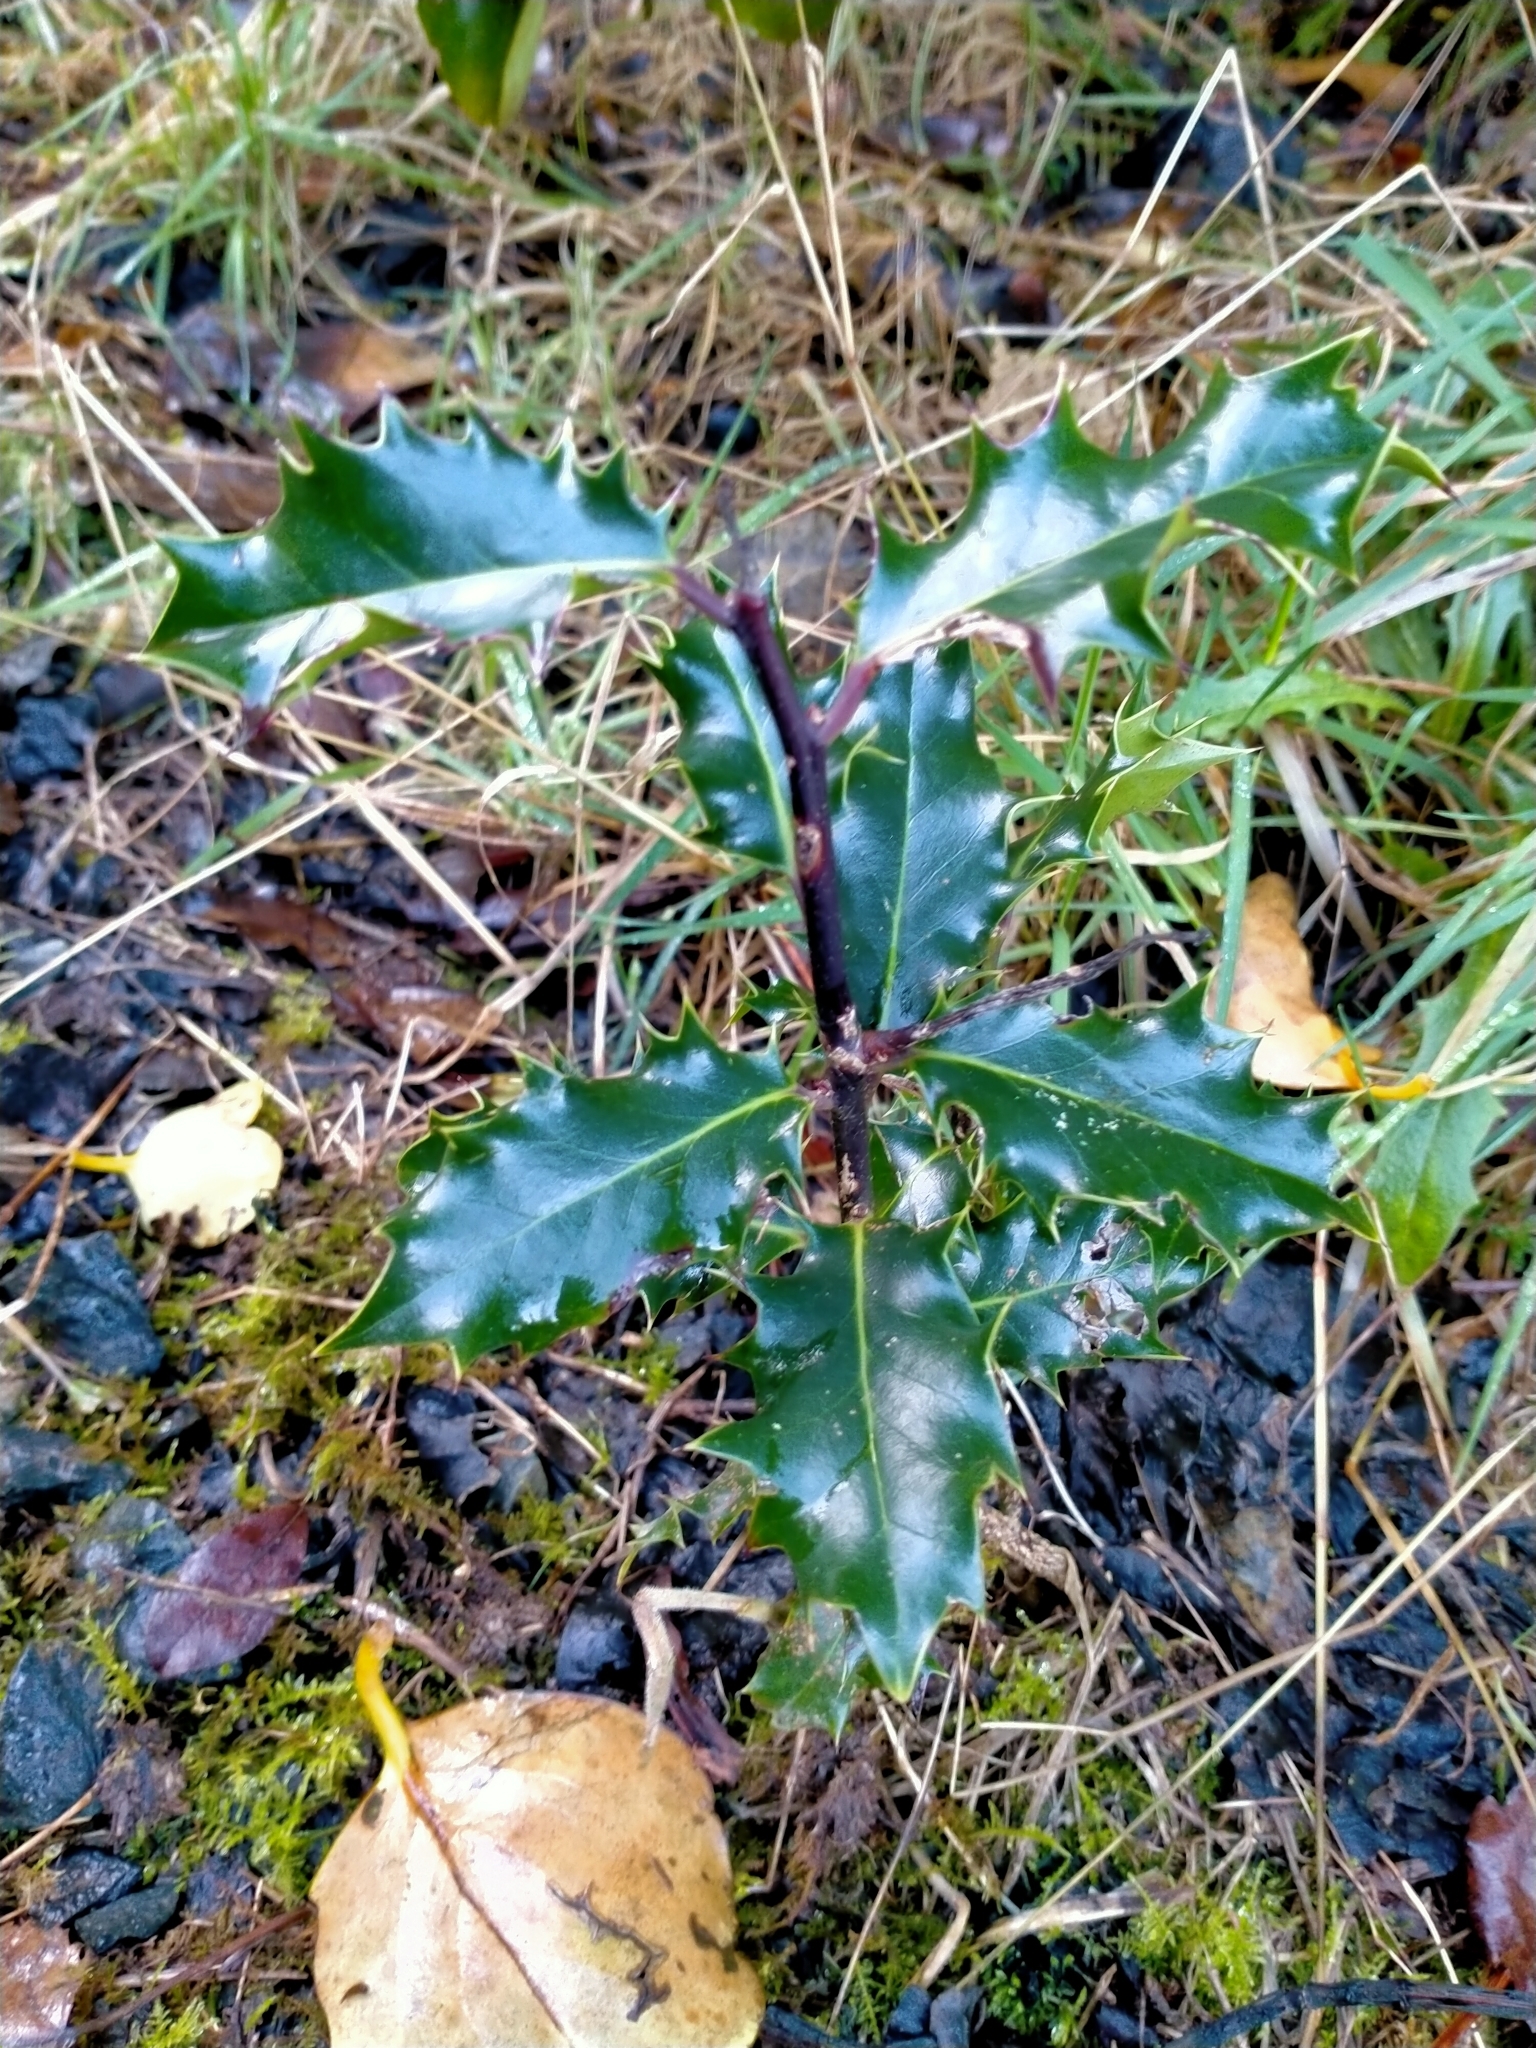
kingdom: Plantae
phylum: Tracheophyta
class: Magnoliopsida
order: Aquifoliales
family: Aquifoliaceae
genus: Ilex
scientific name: Ilex aquifolium
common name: English holly
